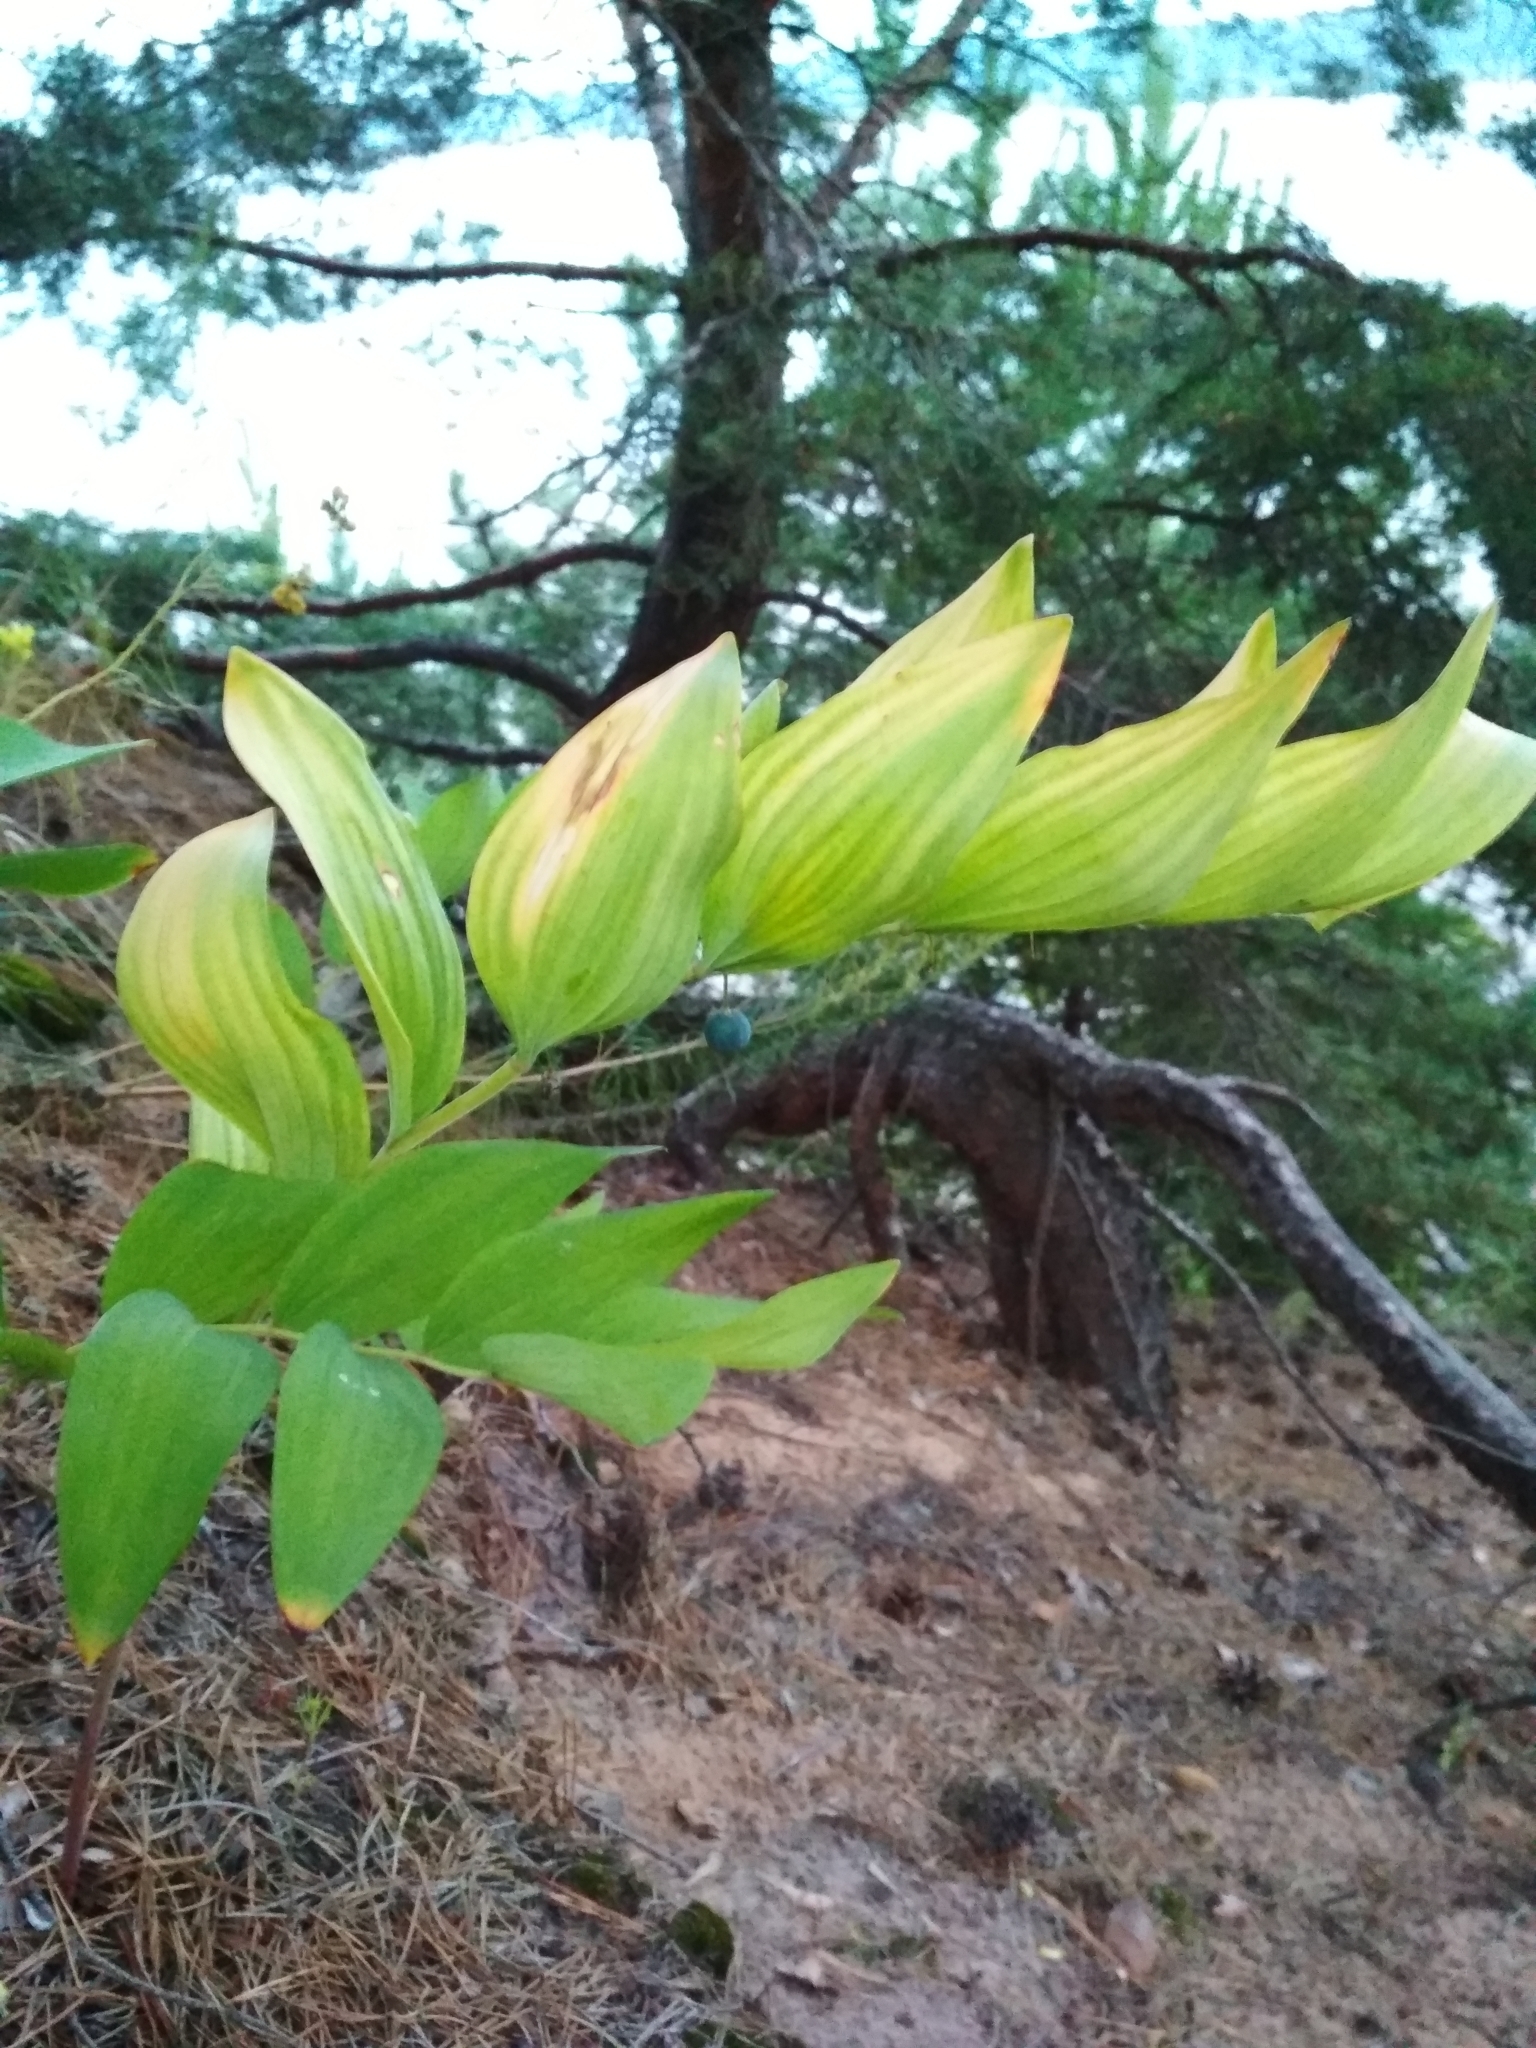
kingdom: Plantae
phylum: Tracheophyta
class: Liliopsida
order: Asparagales
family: Asparagaceae
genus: Polygonatum
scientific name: Polygonatum odoratum
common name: Angular solomon's-seal
